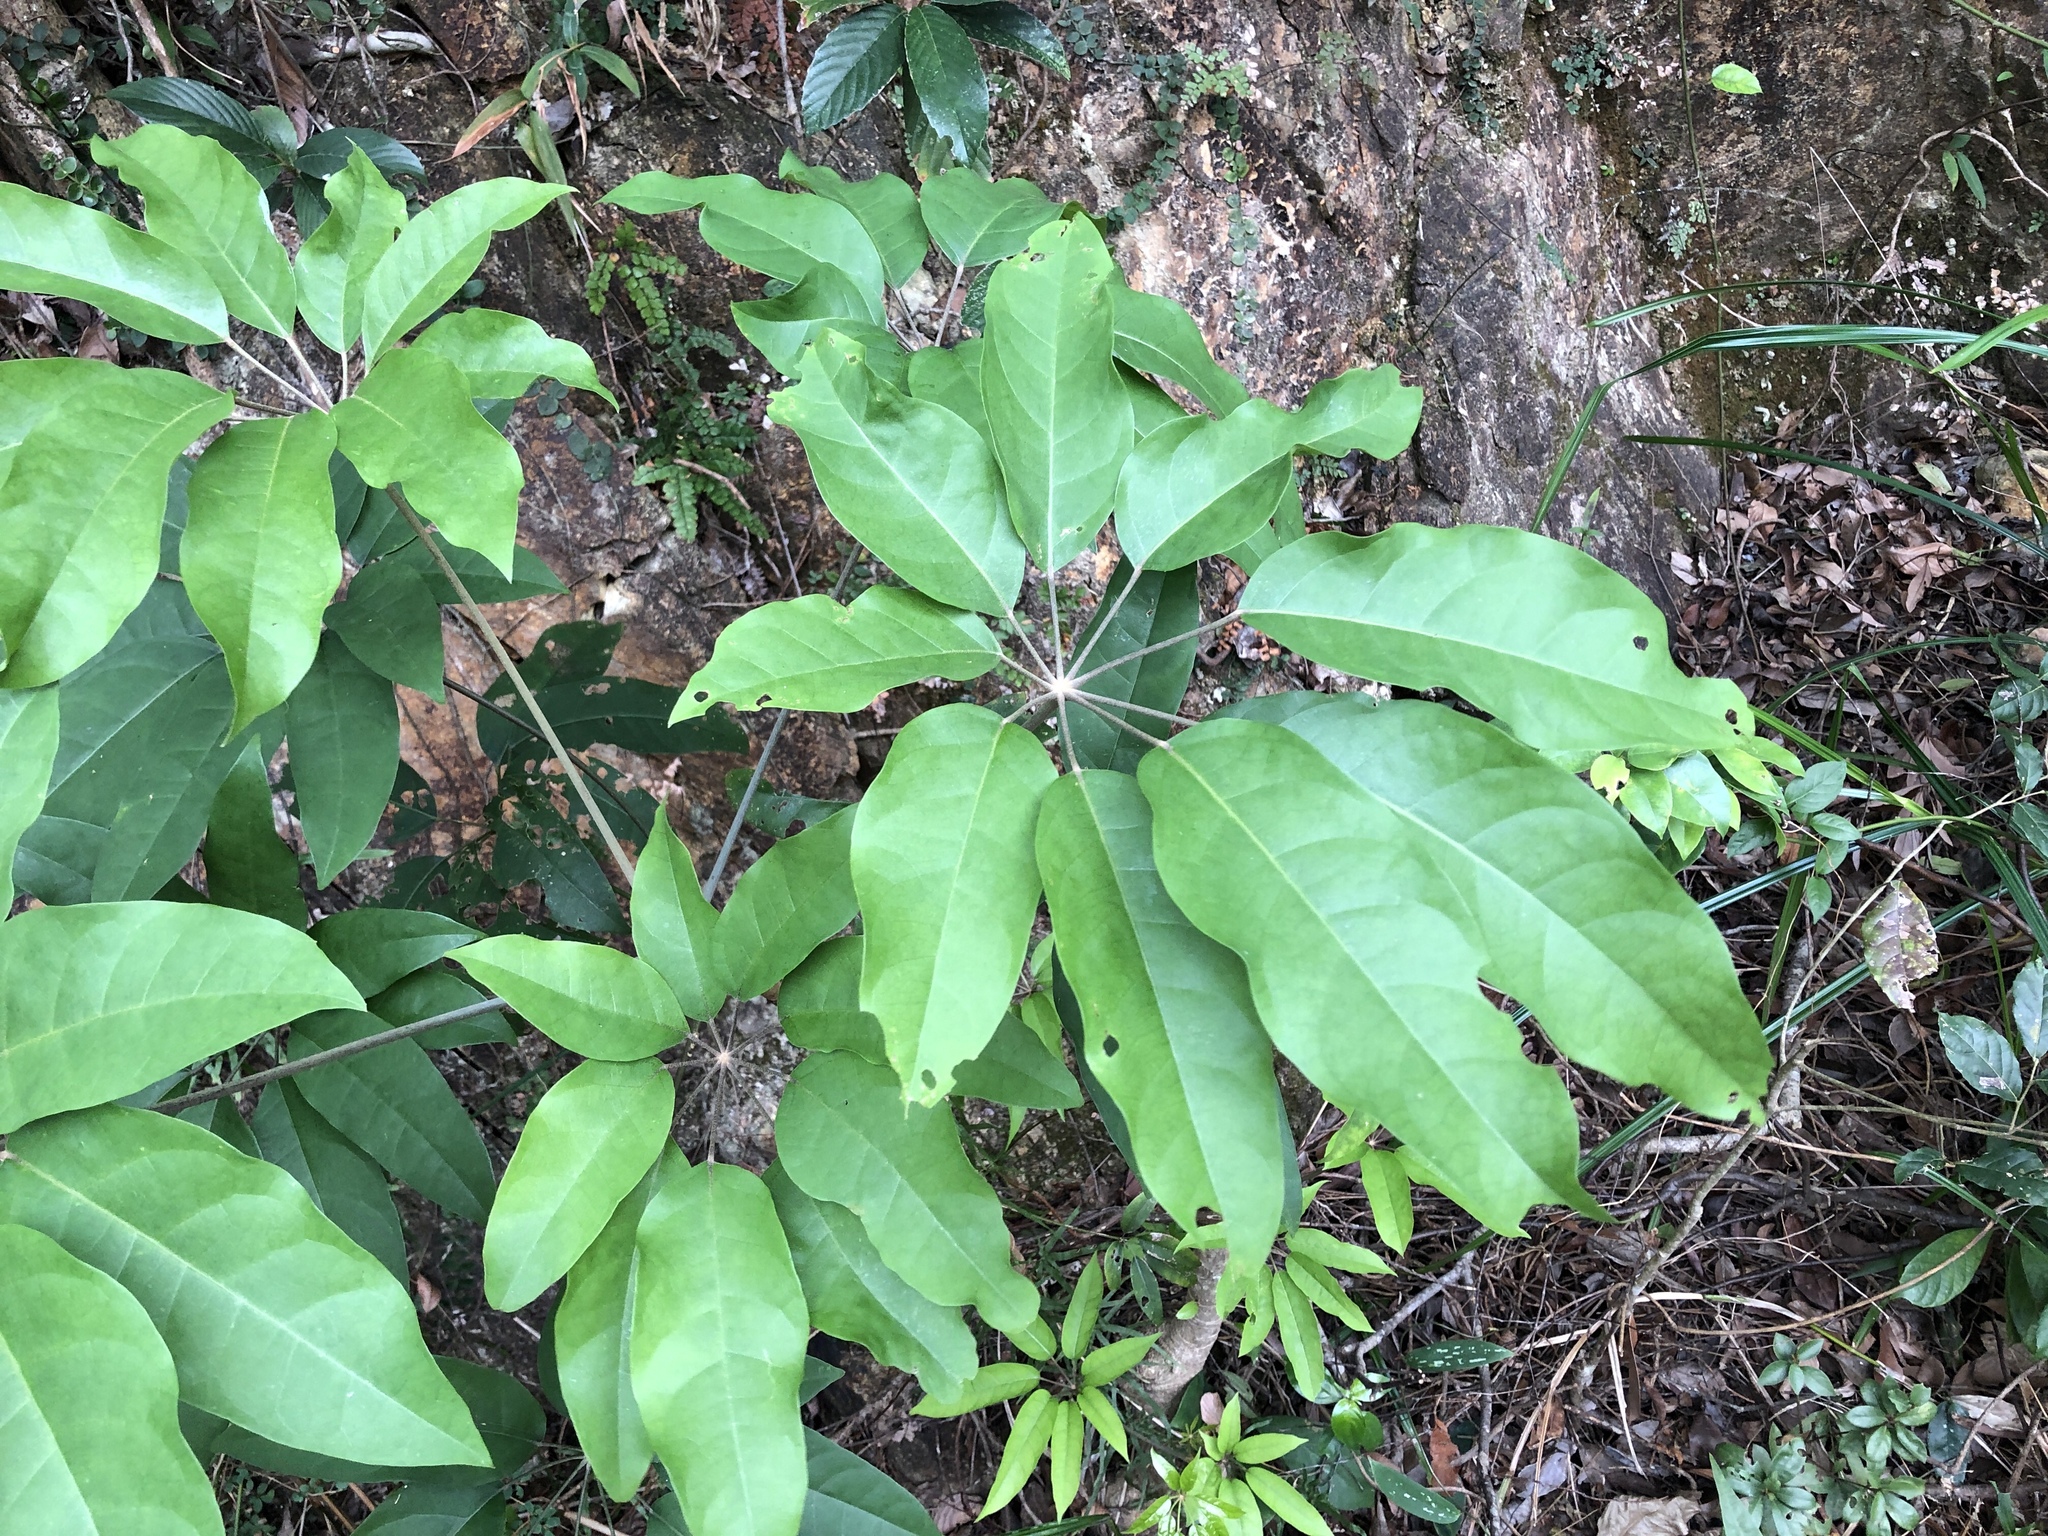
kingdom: Plantae
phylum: Tracheophyta
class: Magnoliopsida
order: Apiales
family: Araliaceae
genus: Heptapleurum
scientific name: Heptapleurum heptaphyllum
